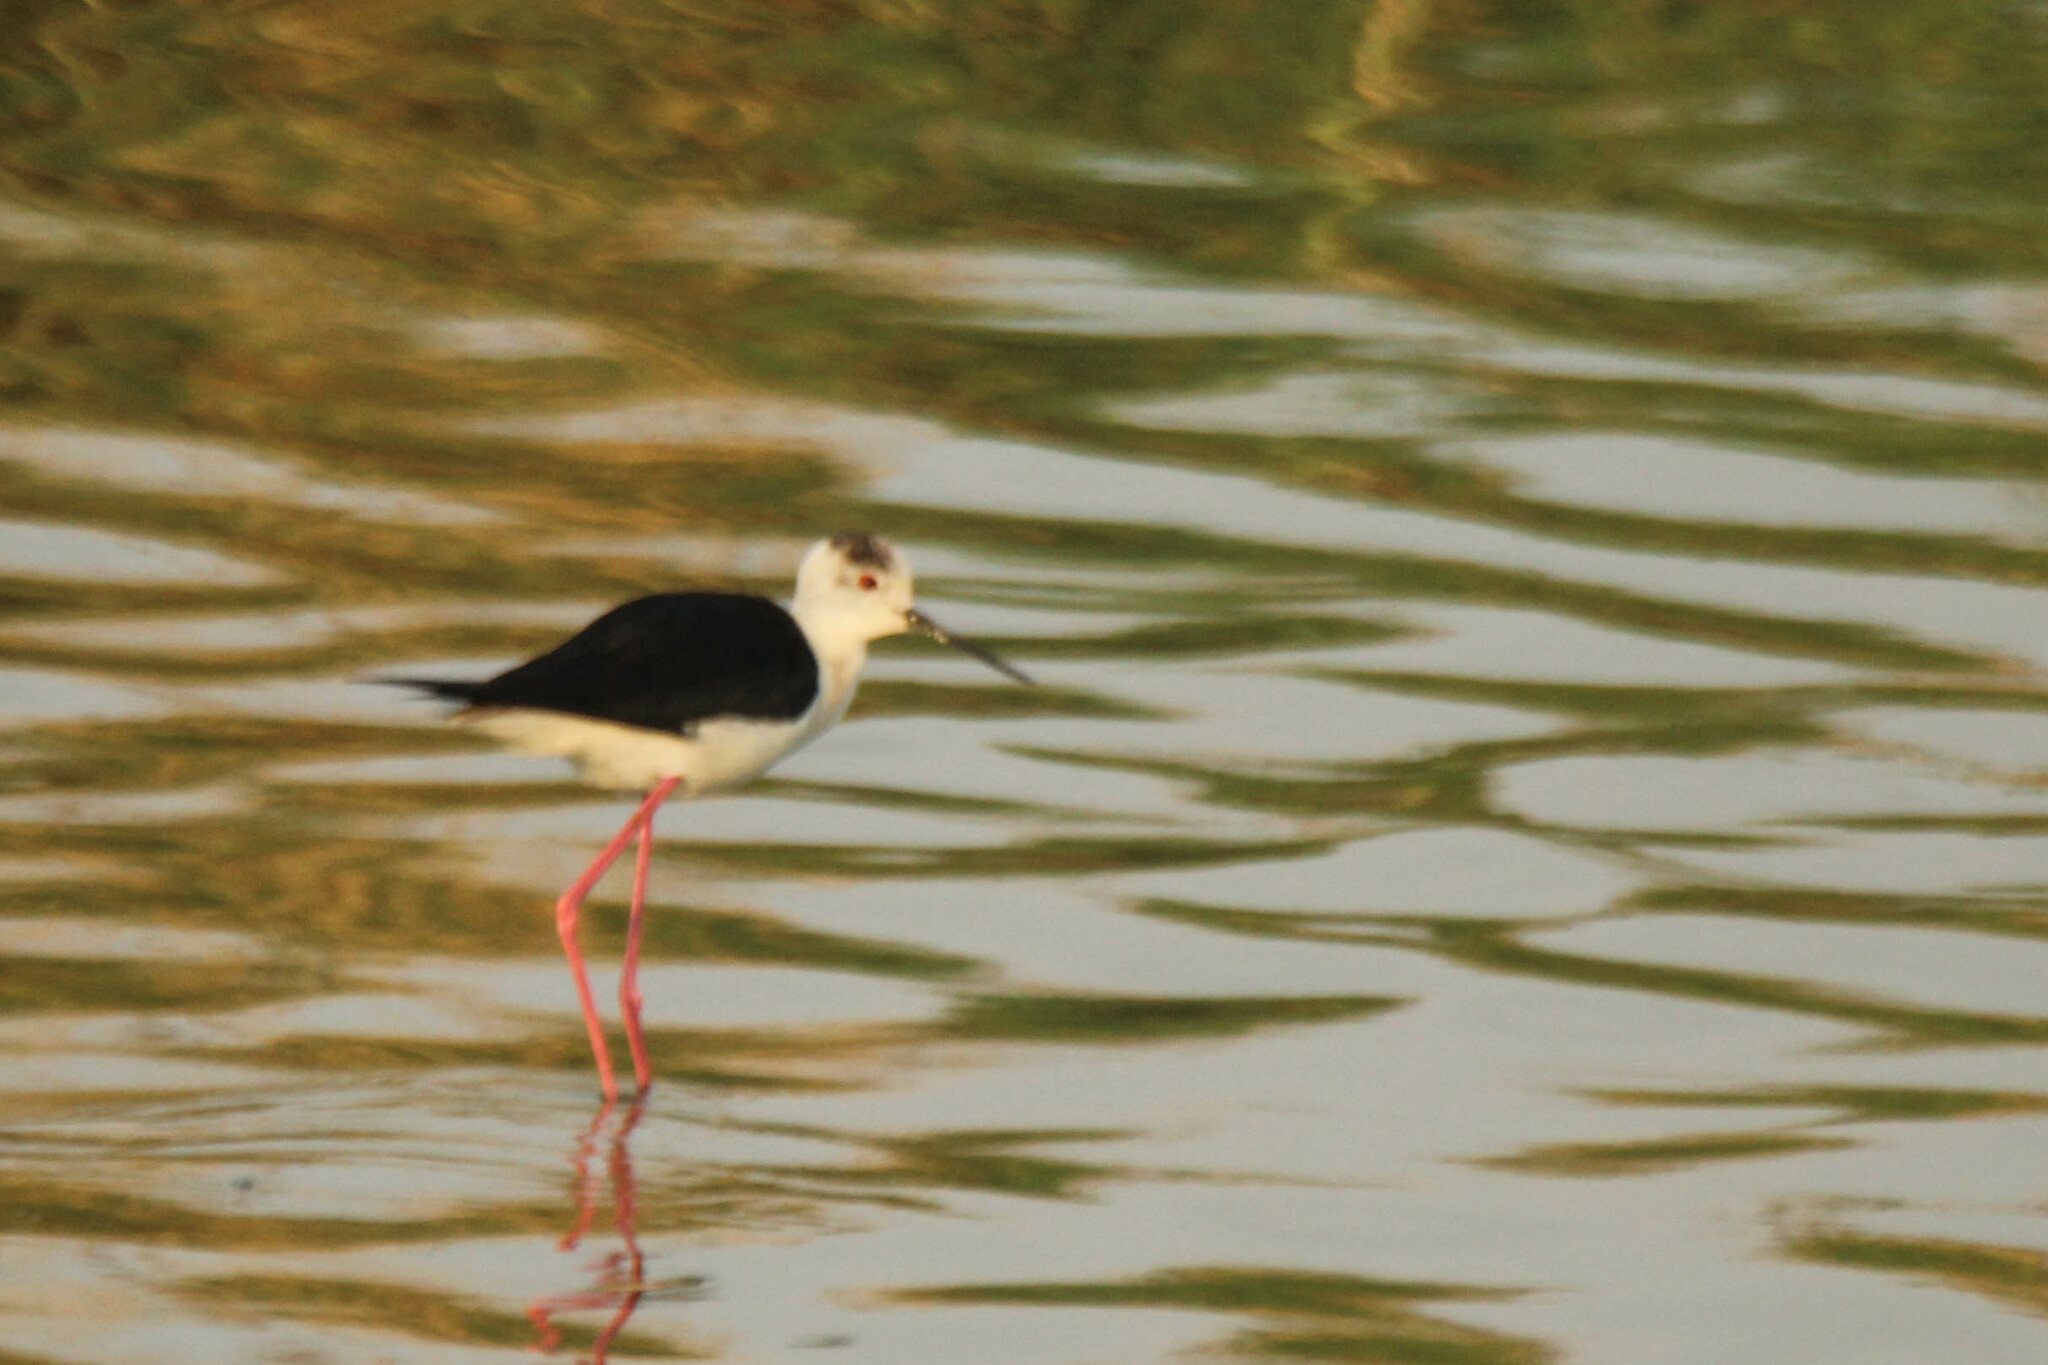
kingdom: Animalia
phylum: Chordata
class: Aves
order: Charadriiformes
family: Recurvirostridae
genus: Himantopus
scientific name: Himantopus himantopus
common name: Black-winged stilt
